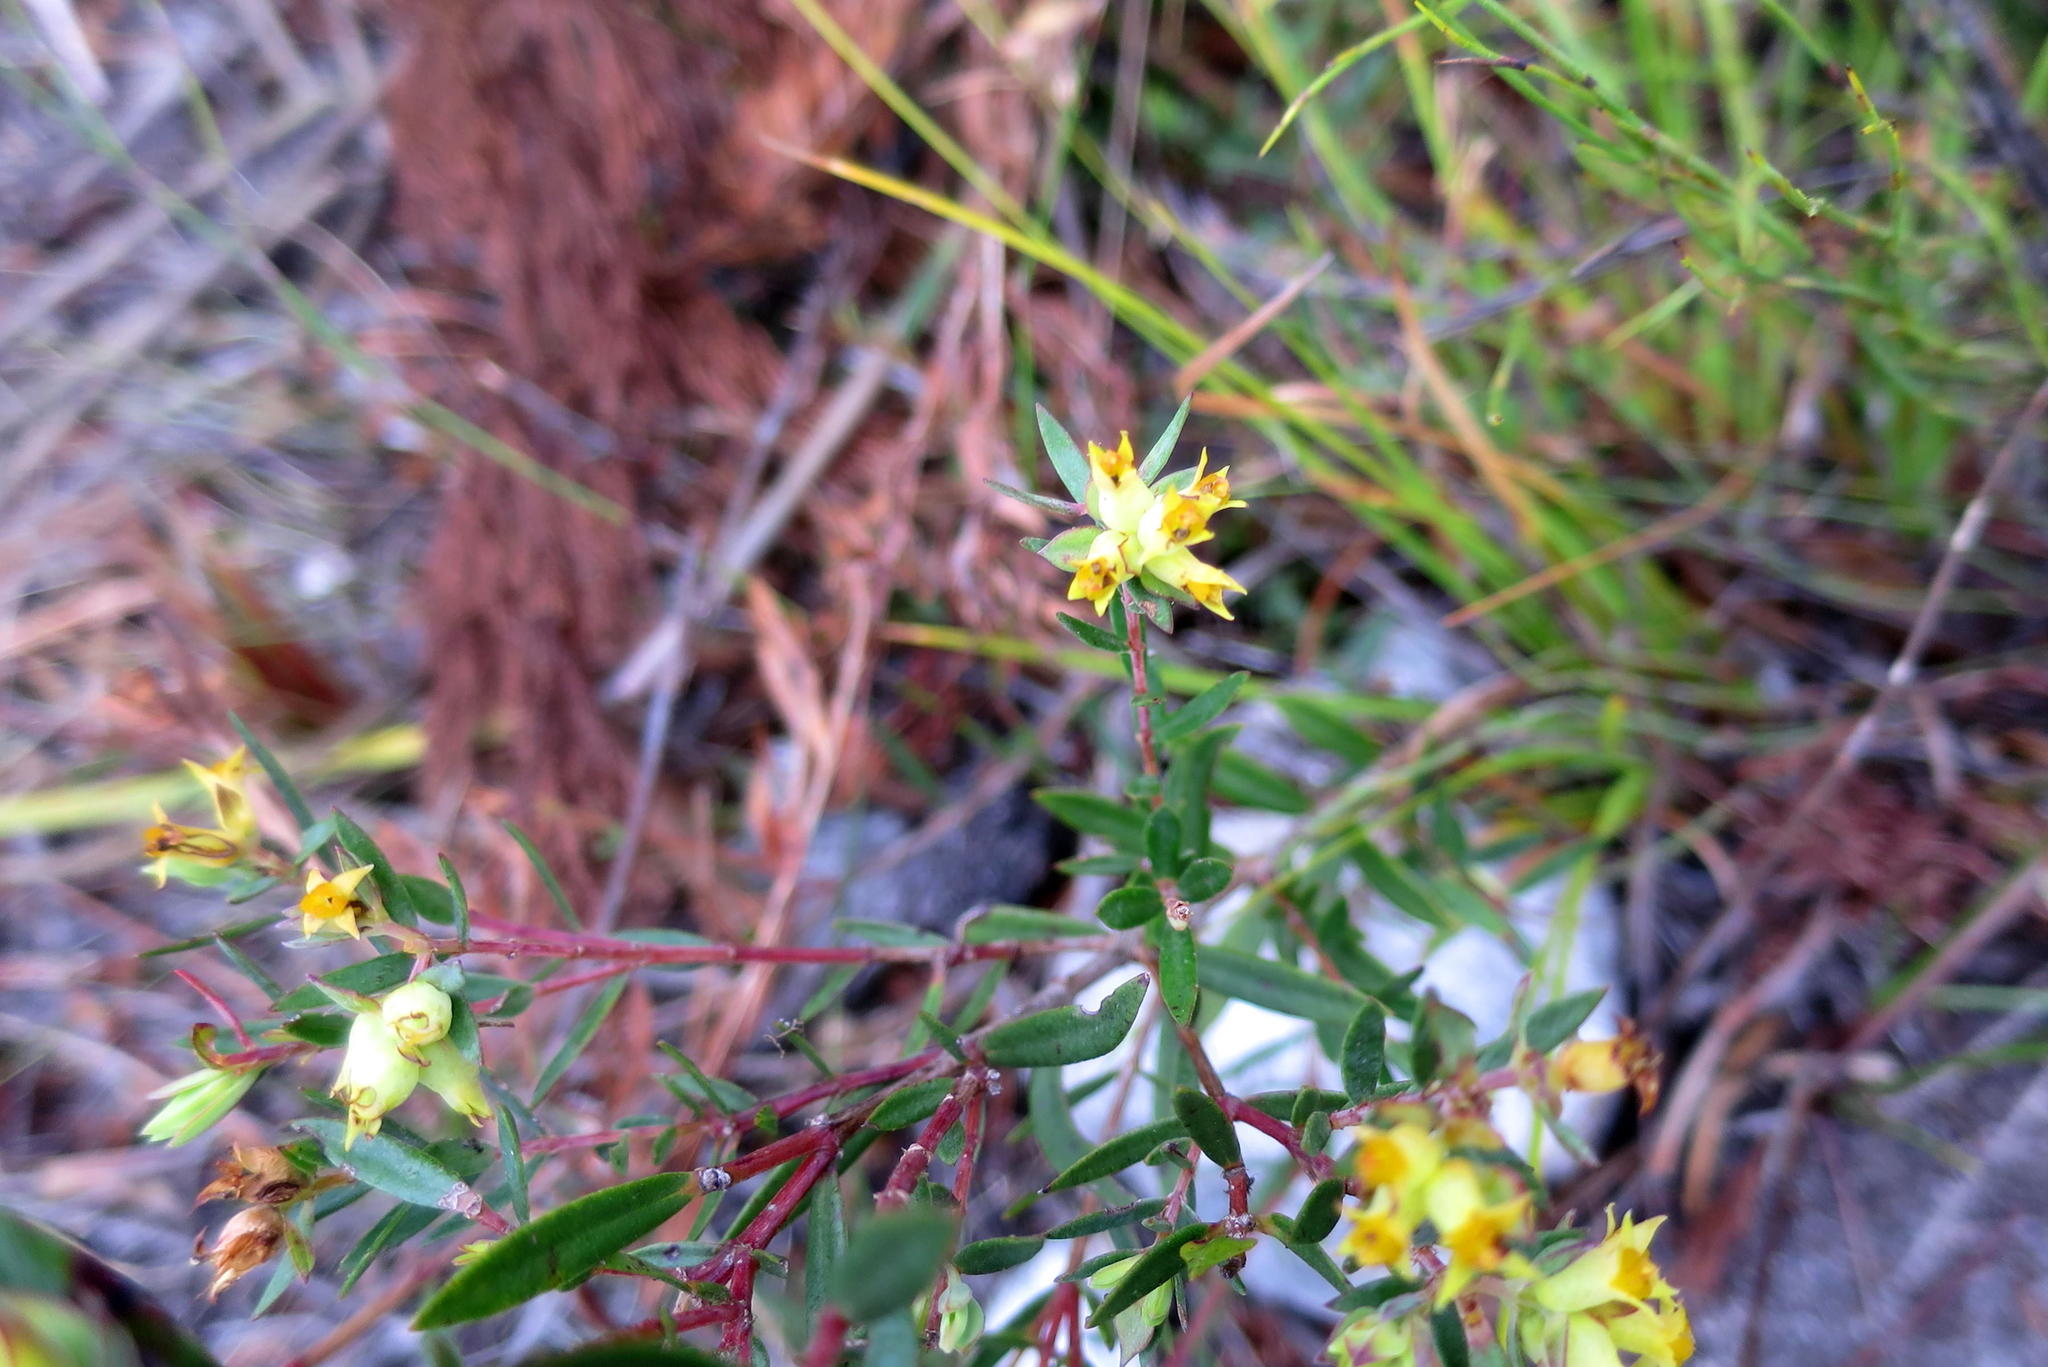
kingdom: Plantae
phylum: Tracheophyta
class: Magnoliopsida
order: Myrtales
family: Penaeaceae
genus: Penaea
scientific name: Penaea acutifolia
